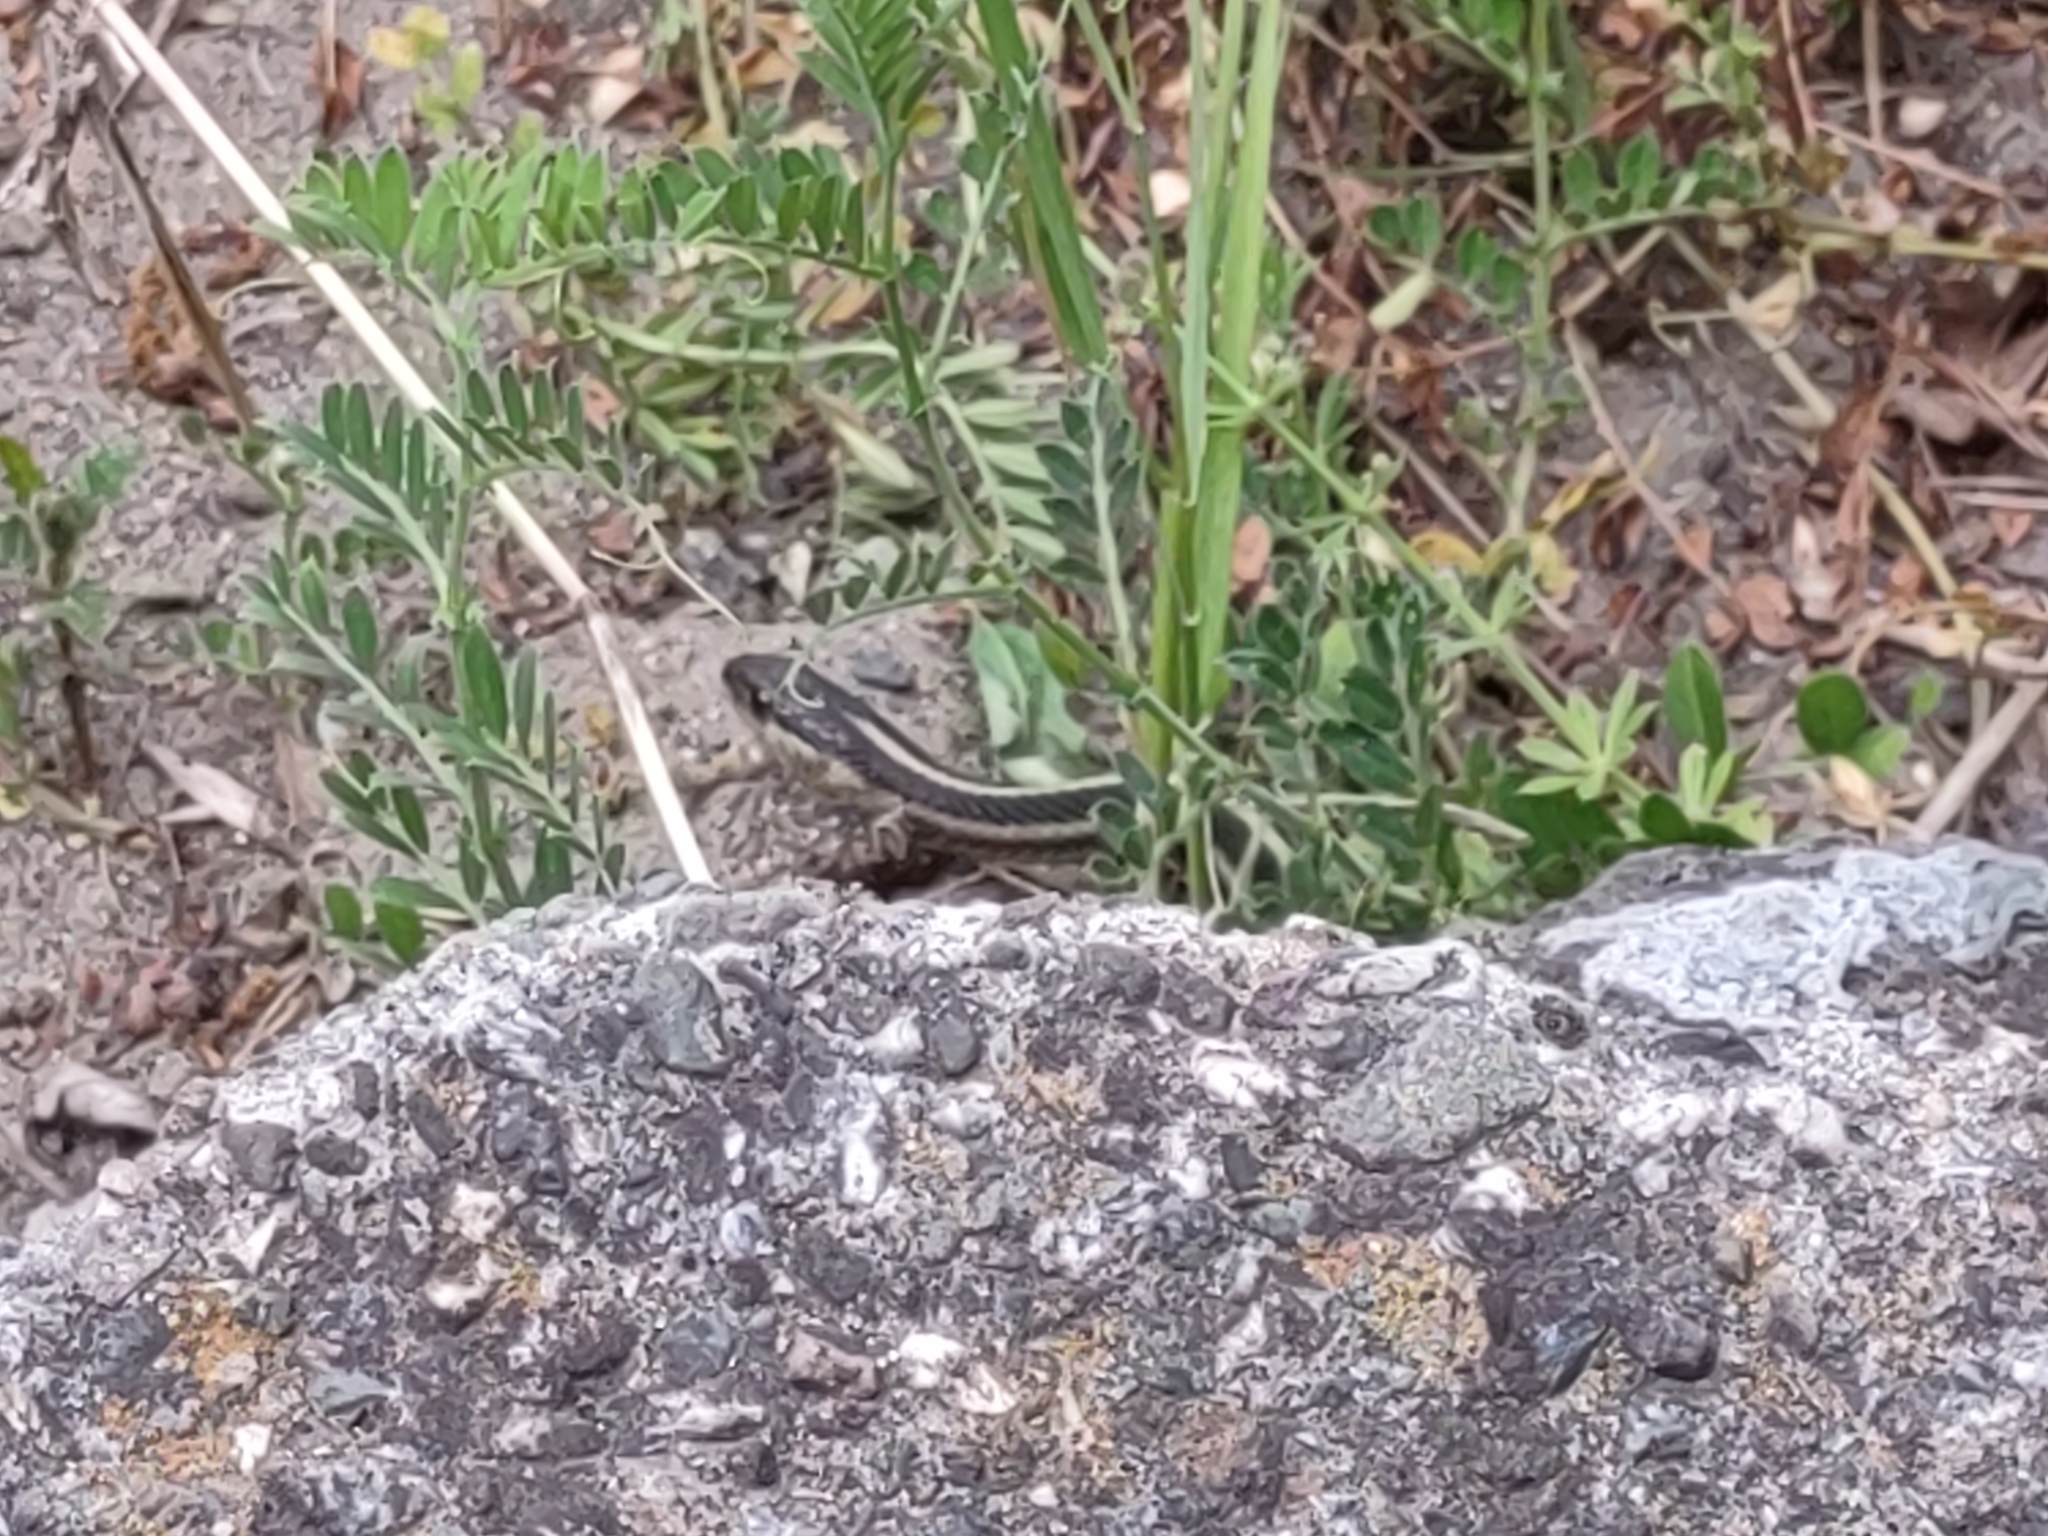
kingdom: Animalia
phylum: Chordata
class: Squamata
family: Colubridae
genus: Thamnophis
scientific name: Thamnophis elegans
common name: Western terrestrial garter snake
